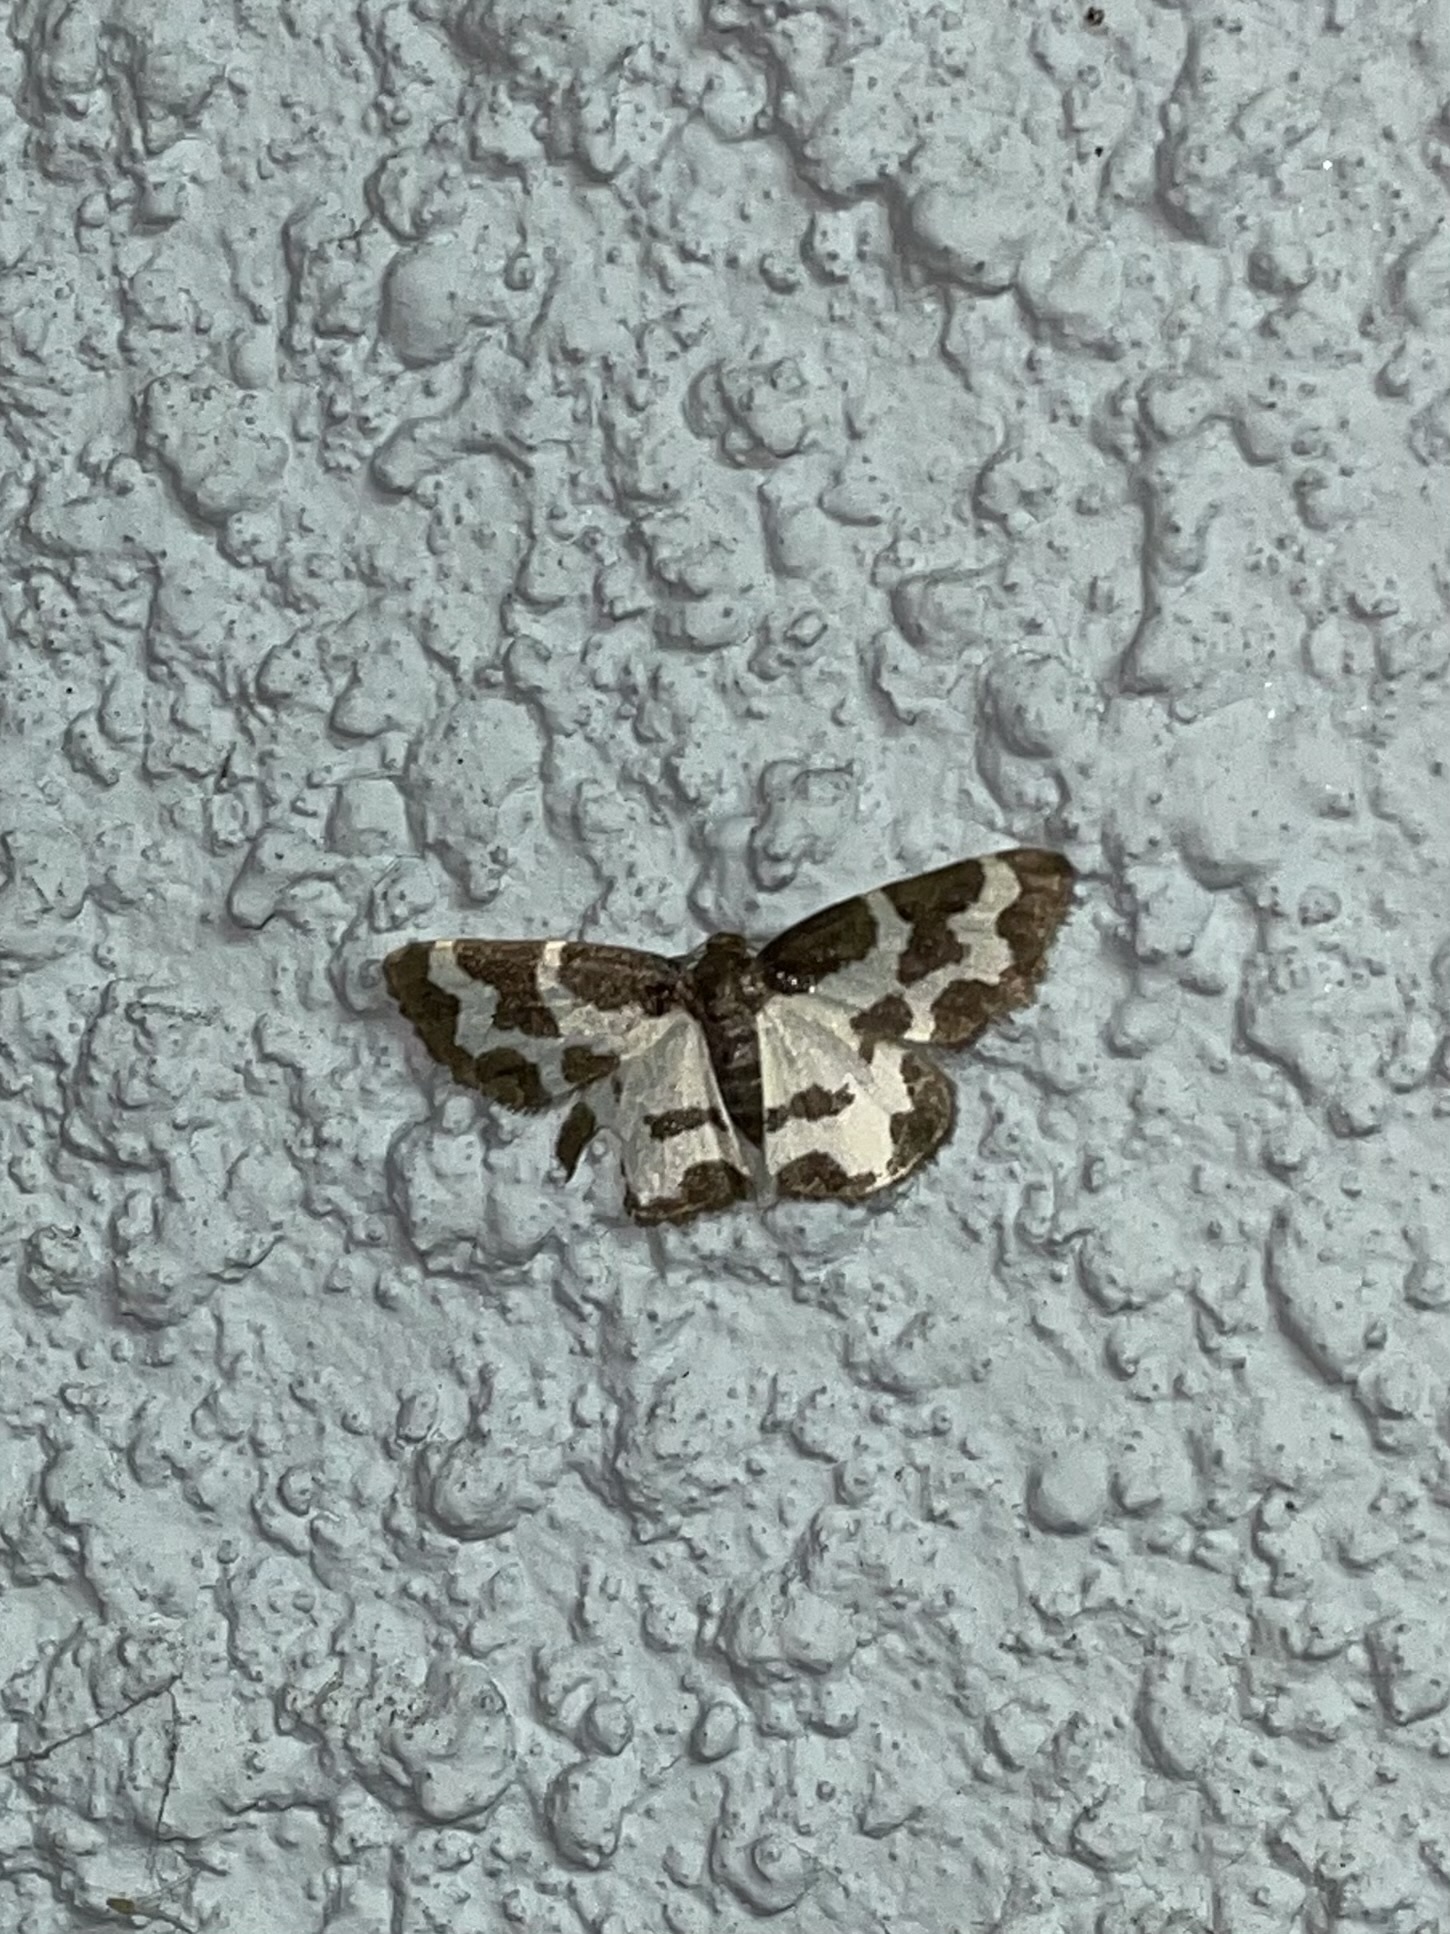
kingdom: Animalia
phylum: Arthropoda
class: Insecta
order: Lepidoptera
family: Geometridae
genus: Lomaspilis
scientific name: Lomaspilis marginata
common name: Clouded border
